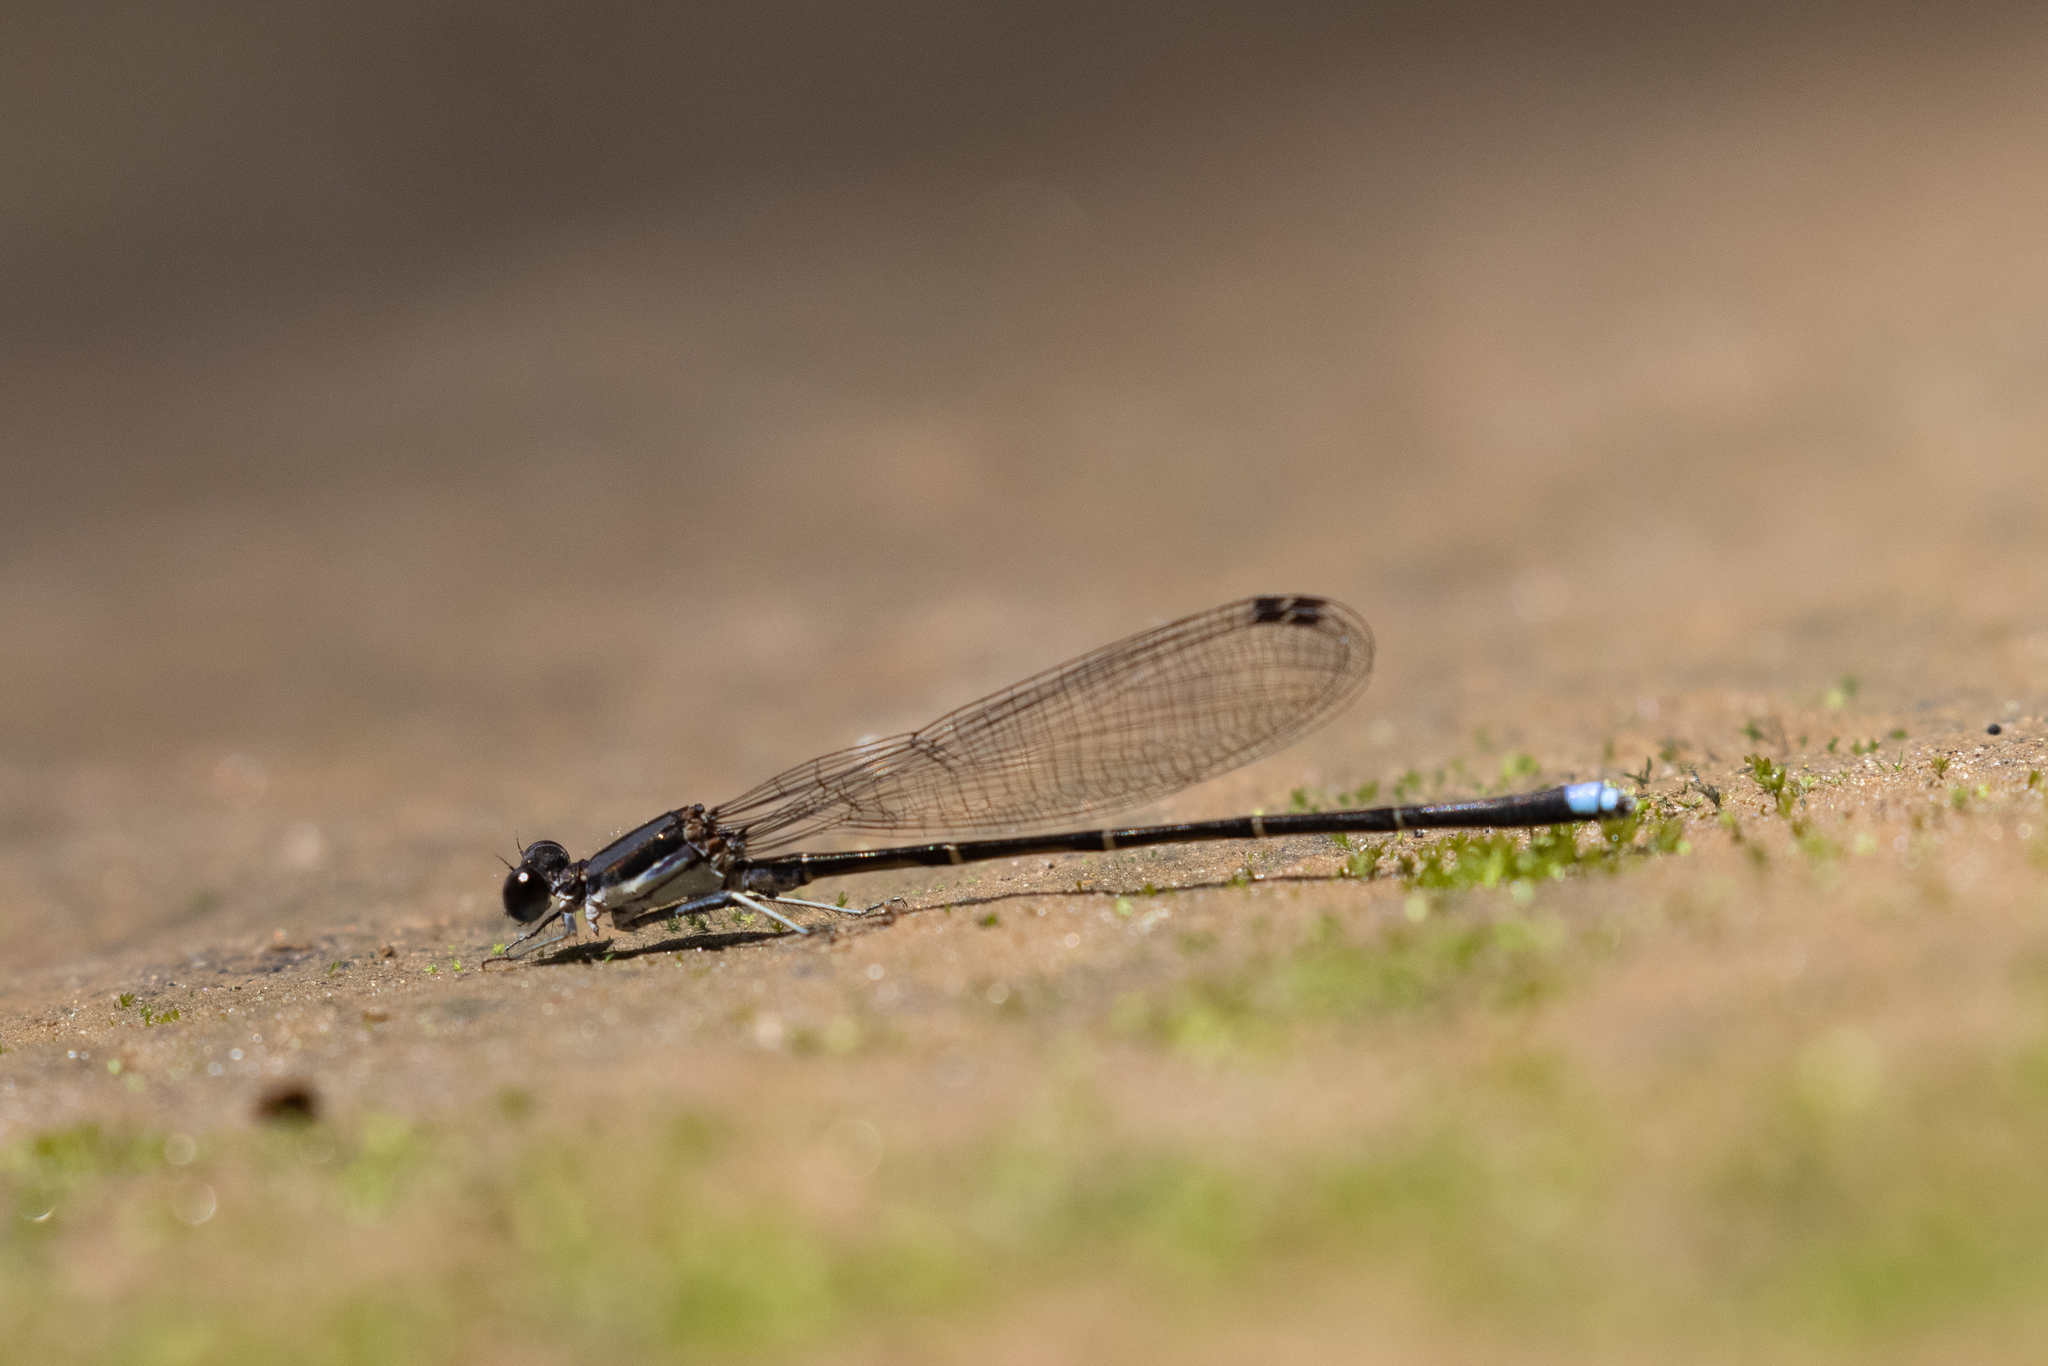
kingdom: Animalia
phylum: Arthropoda
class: Insecta
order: Odonata
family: Coenagrionidae
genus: Argia
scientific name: Argia tibialis
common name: Blue-tipped dancer
